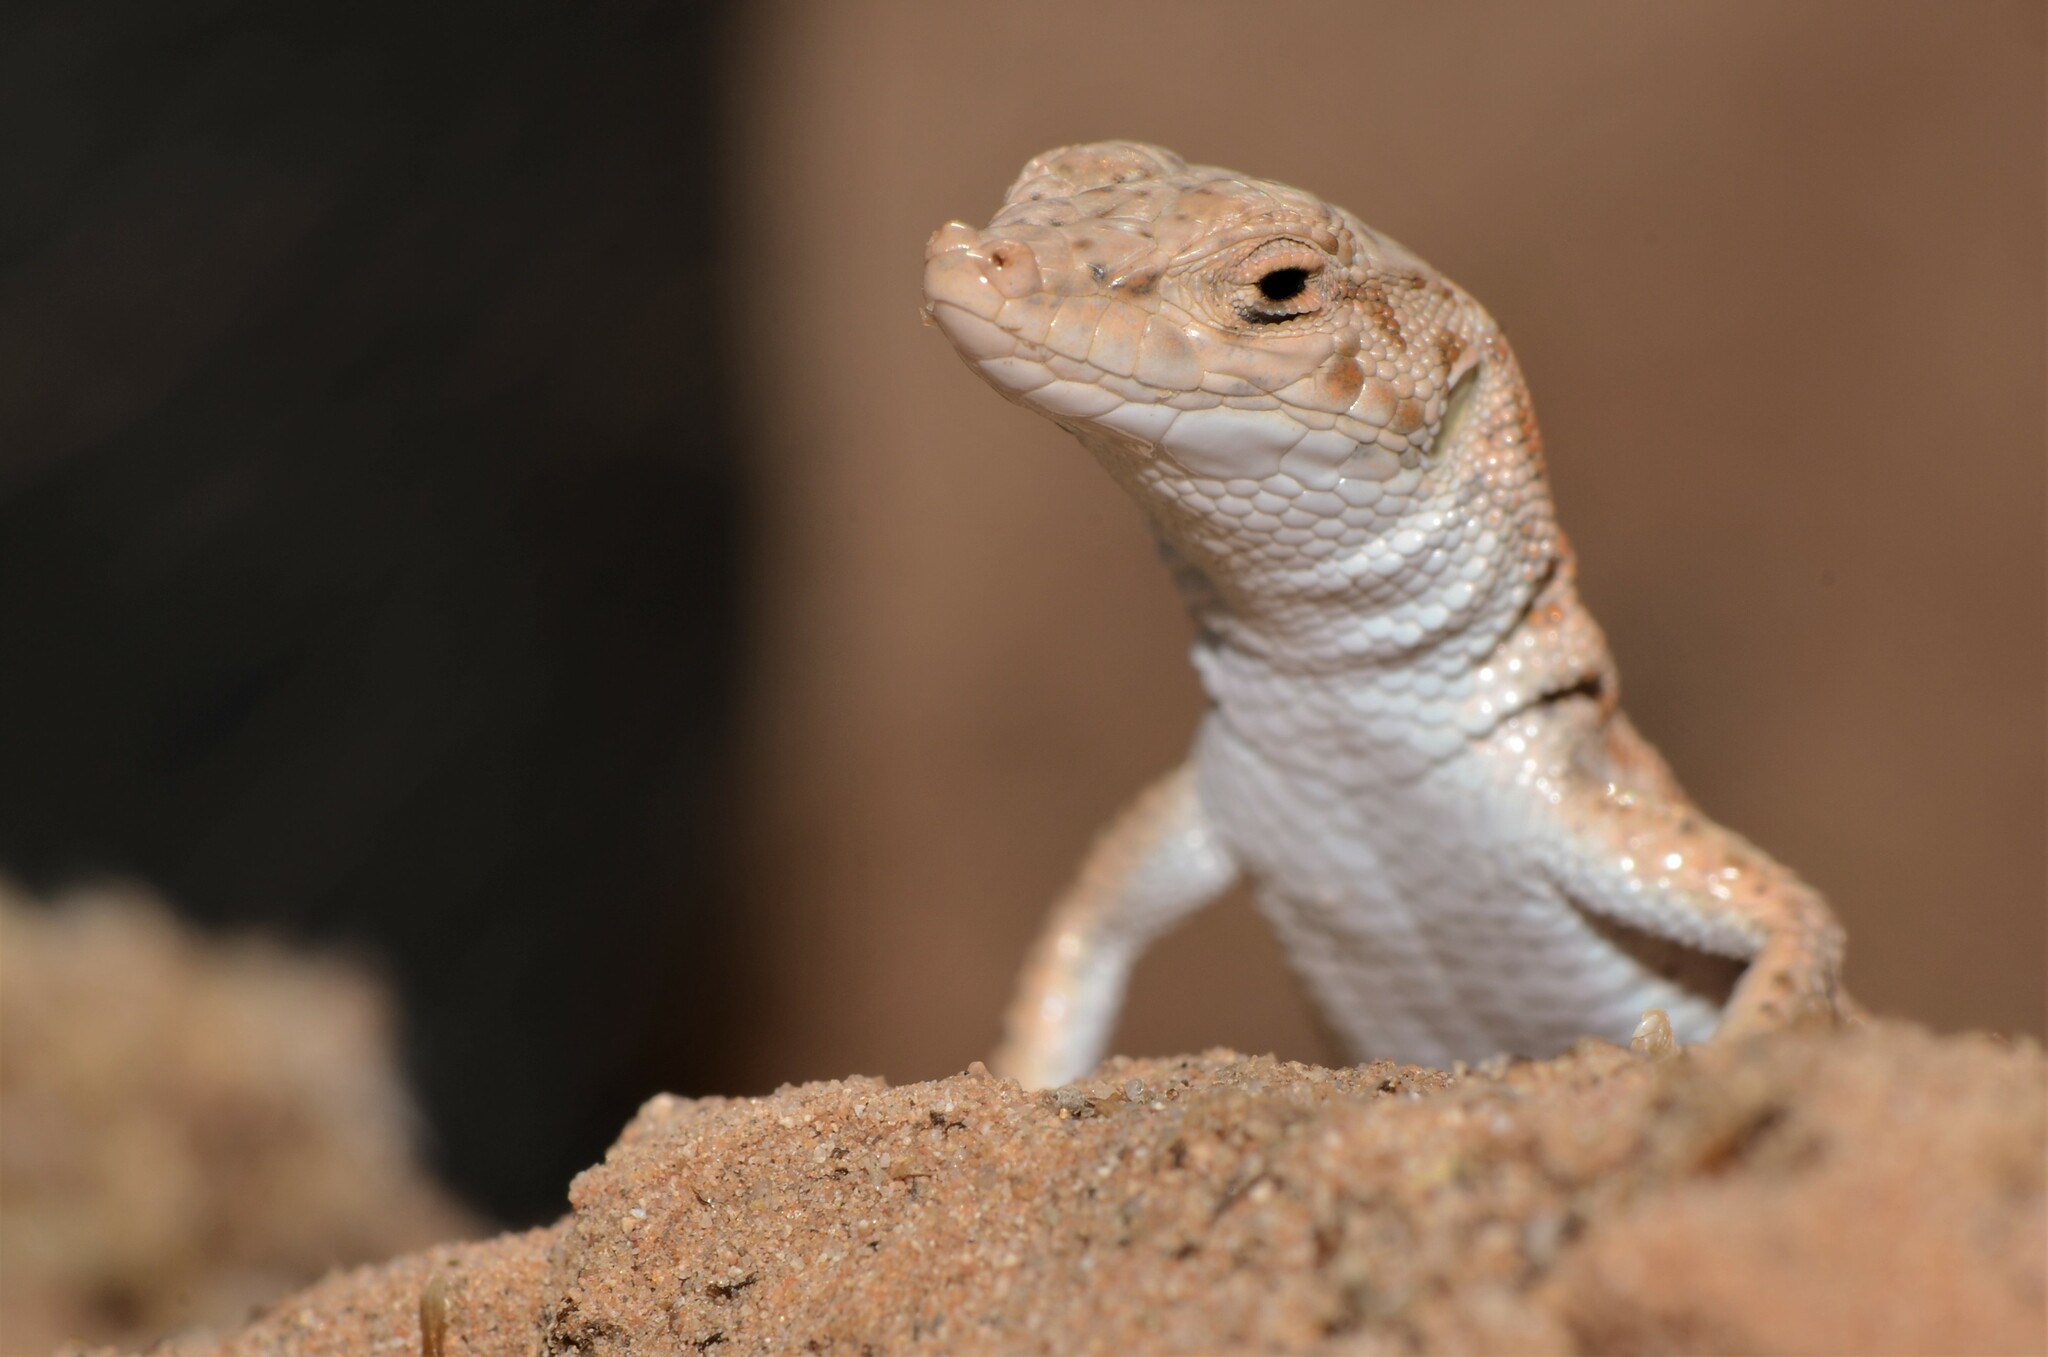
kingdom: Animalia
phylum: Chordata
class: Squamata
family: Lacertidae
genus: Mesalina
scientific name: Mesalina brevirostris
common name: Blanford's short-nosed desert lizard
